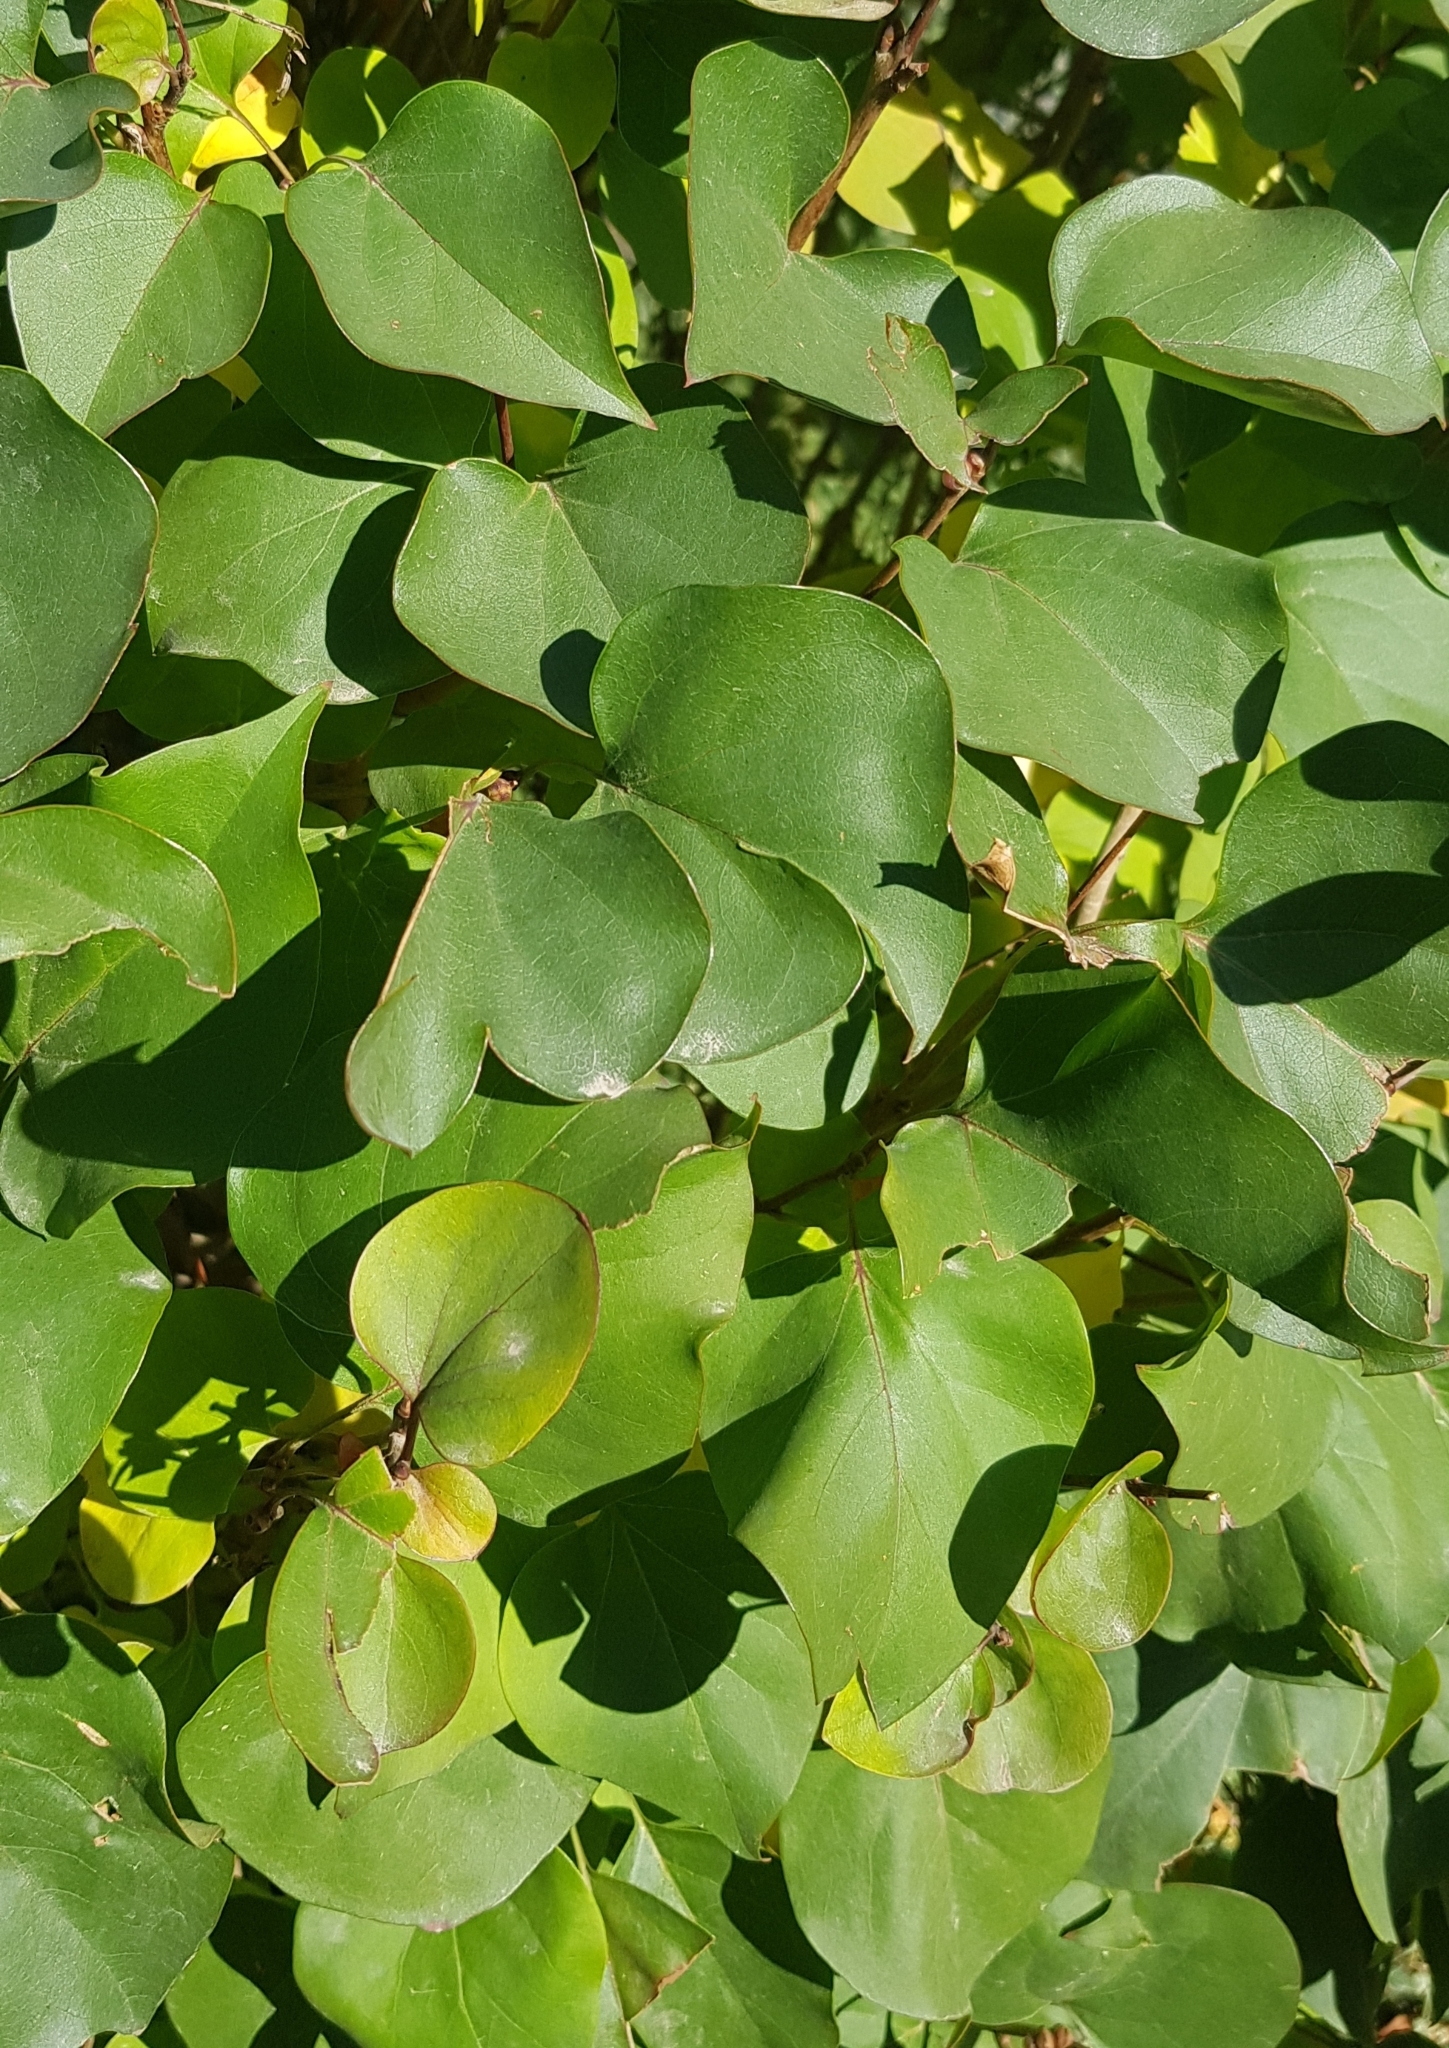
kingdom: Plantae
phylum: Tracheophyta
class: Magnoliopsida
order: Rosales
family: Rosaceae
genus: Prunus
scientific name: Prunus armeniaca
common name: Apricot
